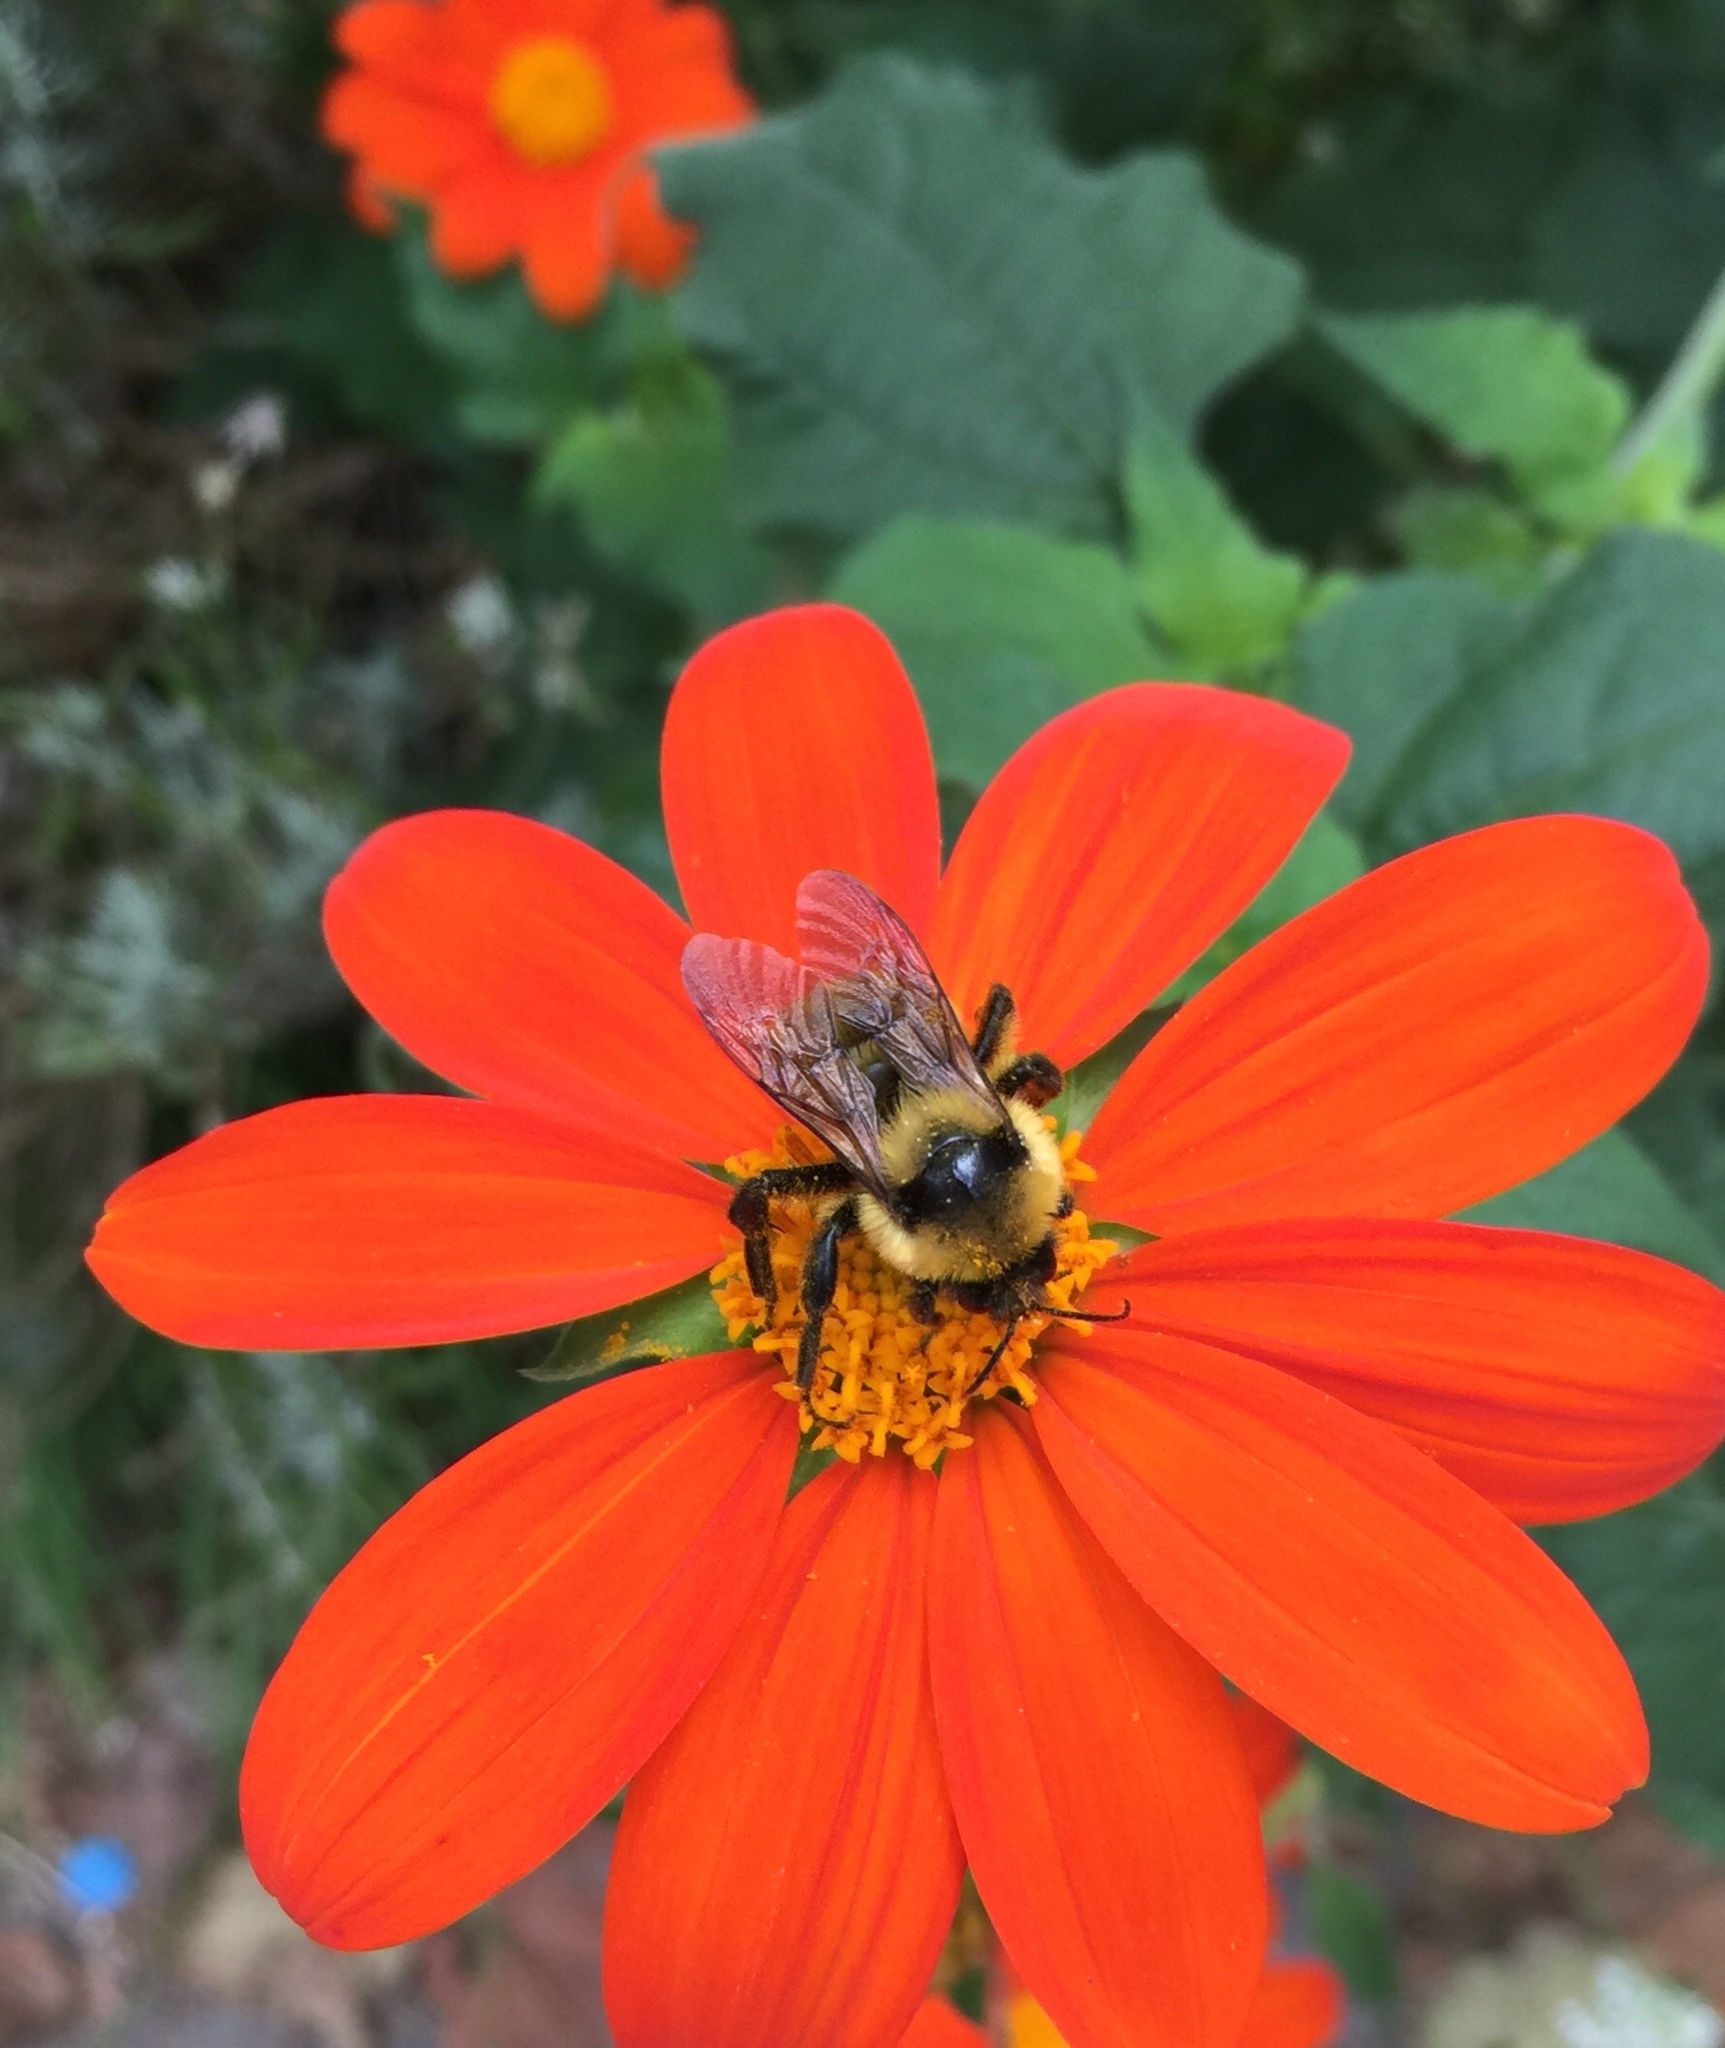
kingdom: Animalia
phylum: Arthropoda
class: Insecta
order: Hymenoptera
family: Apidae
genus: Bombus
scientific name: Bombus fervidus
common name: Yellow bumble bee
